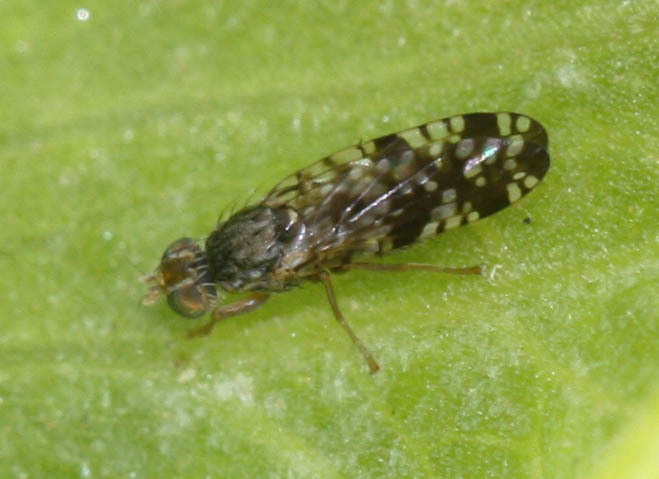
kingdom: Animalia
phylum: Arthropoda
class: Insecta
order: Diptera
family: Tephritidae
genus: Neotephritis
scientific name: Neotephritis finalis
